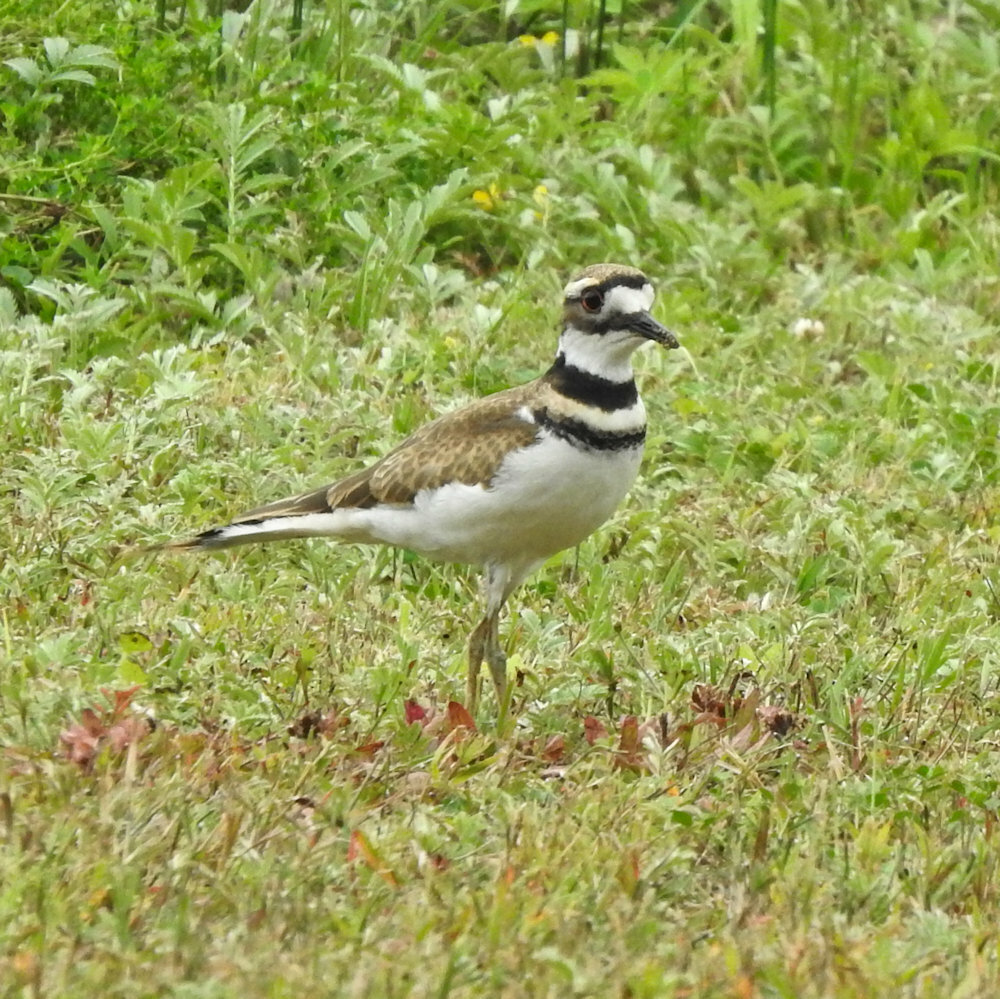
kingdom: Animalia
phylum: Chordata
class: Aves
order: Charadriiformes
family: Charadriidae
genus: Charadrius
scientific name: Charadrius vociferus
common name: Killdeer
